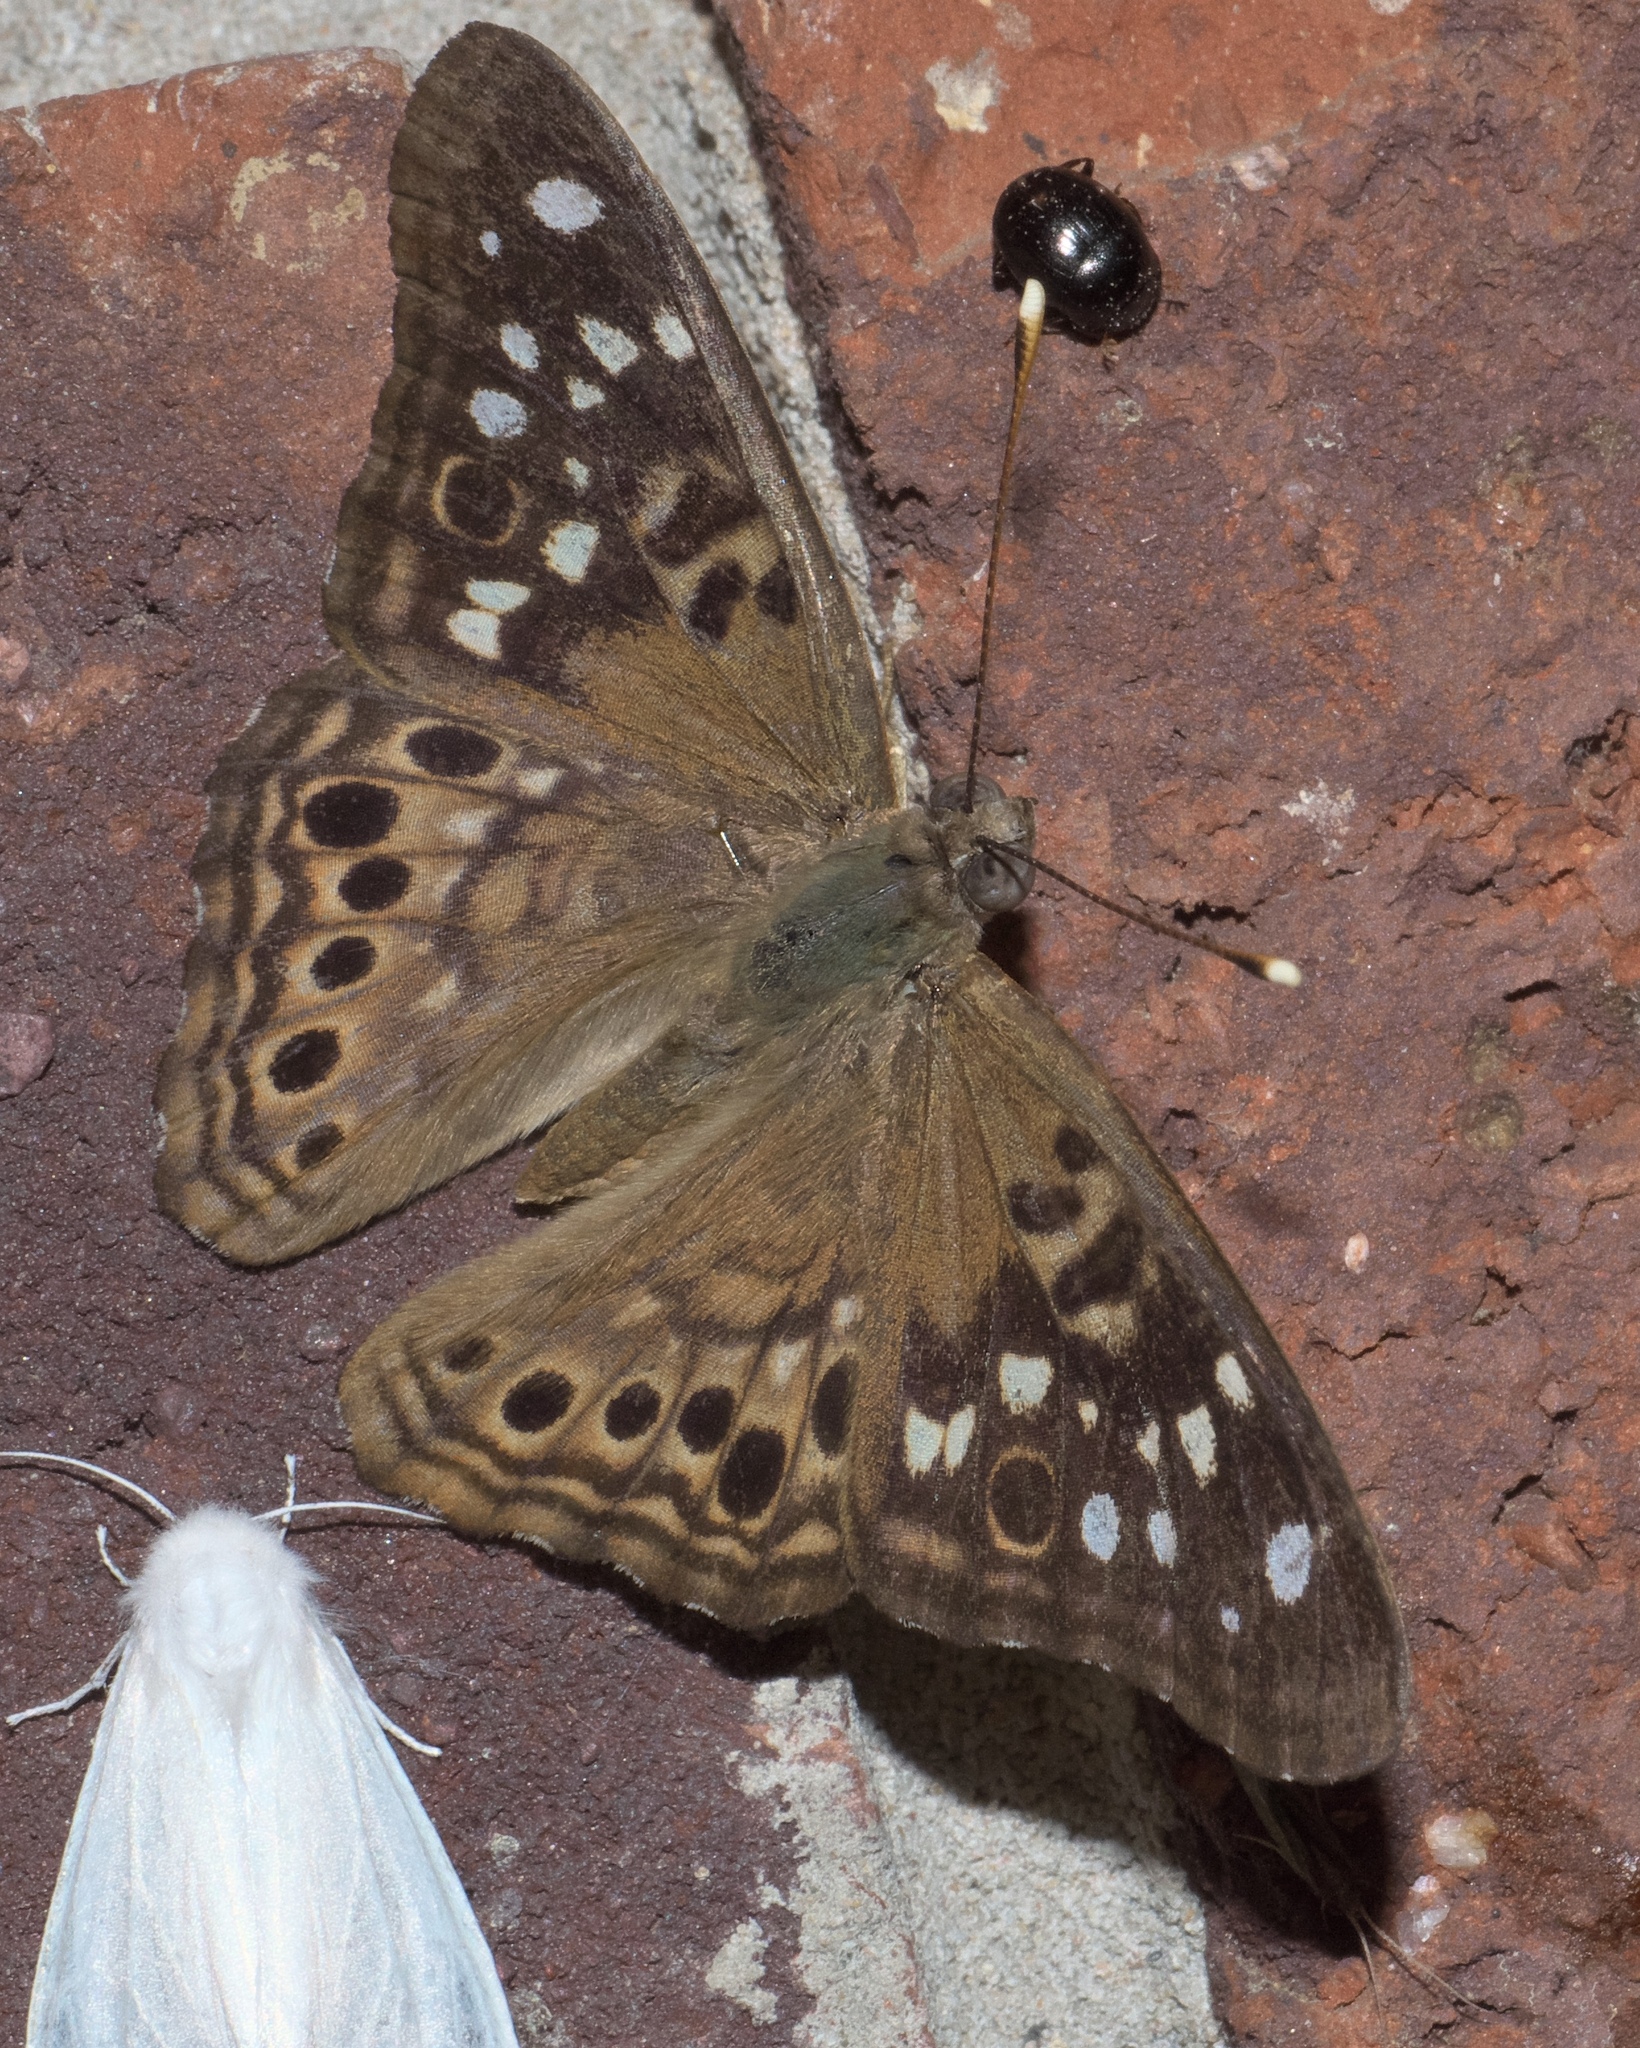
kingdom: Animalia
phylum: Arthropoda
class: Insecta
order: Lepidoptera
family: Nymphalidae
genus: Asterocampa
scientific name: Asterocampa celtis
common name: Hackberry emperor
